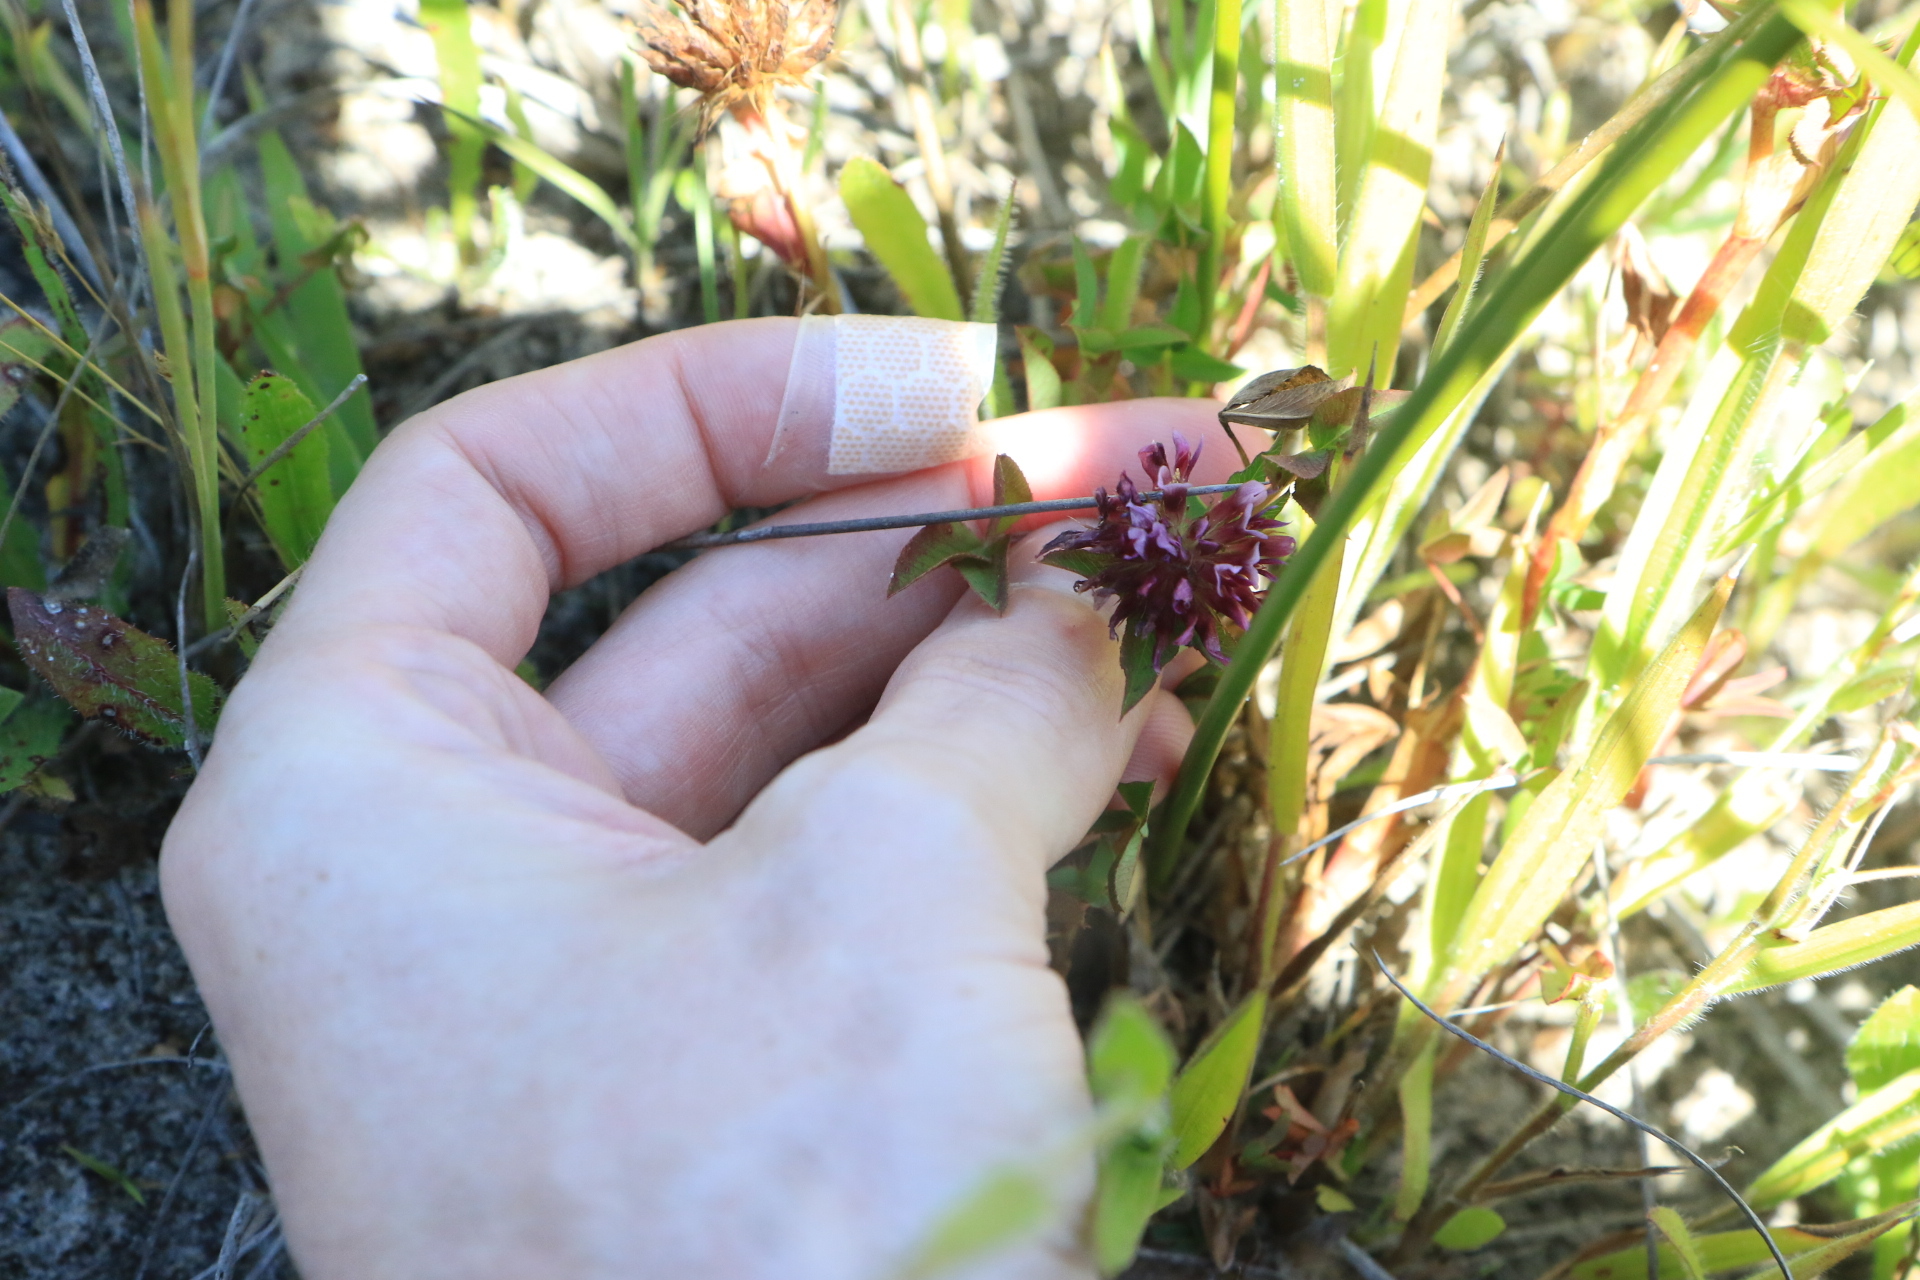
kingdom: Plantae
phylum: Tracheophyta
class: Magnoliopsida
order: Fabales
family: Fabaceae
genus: Trifolium
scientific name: Trifolium wormskioldii
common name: Springbank clover
